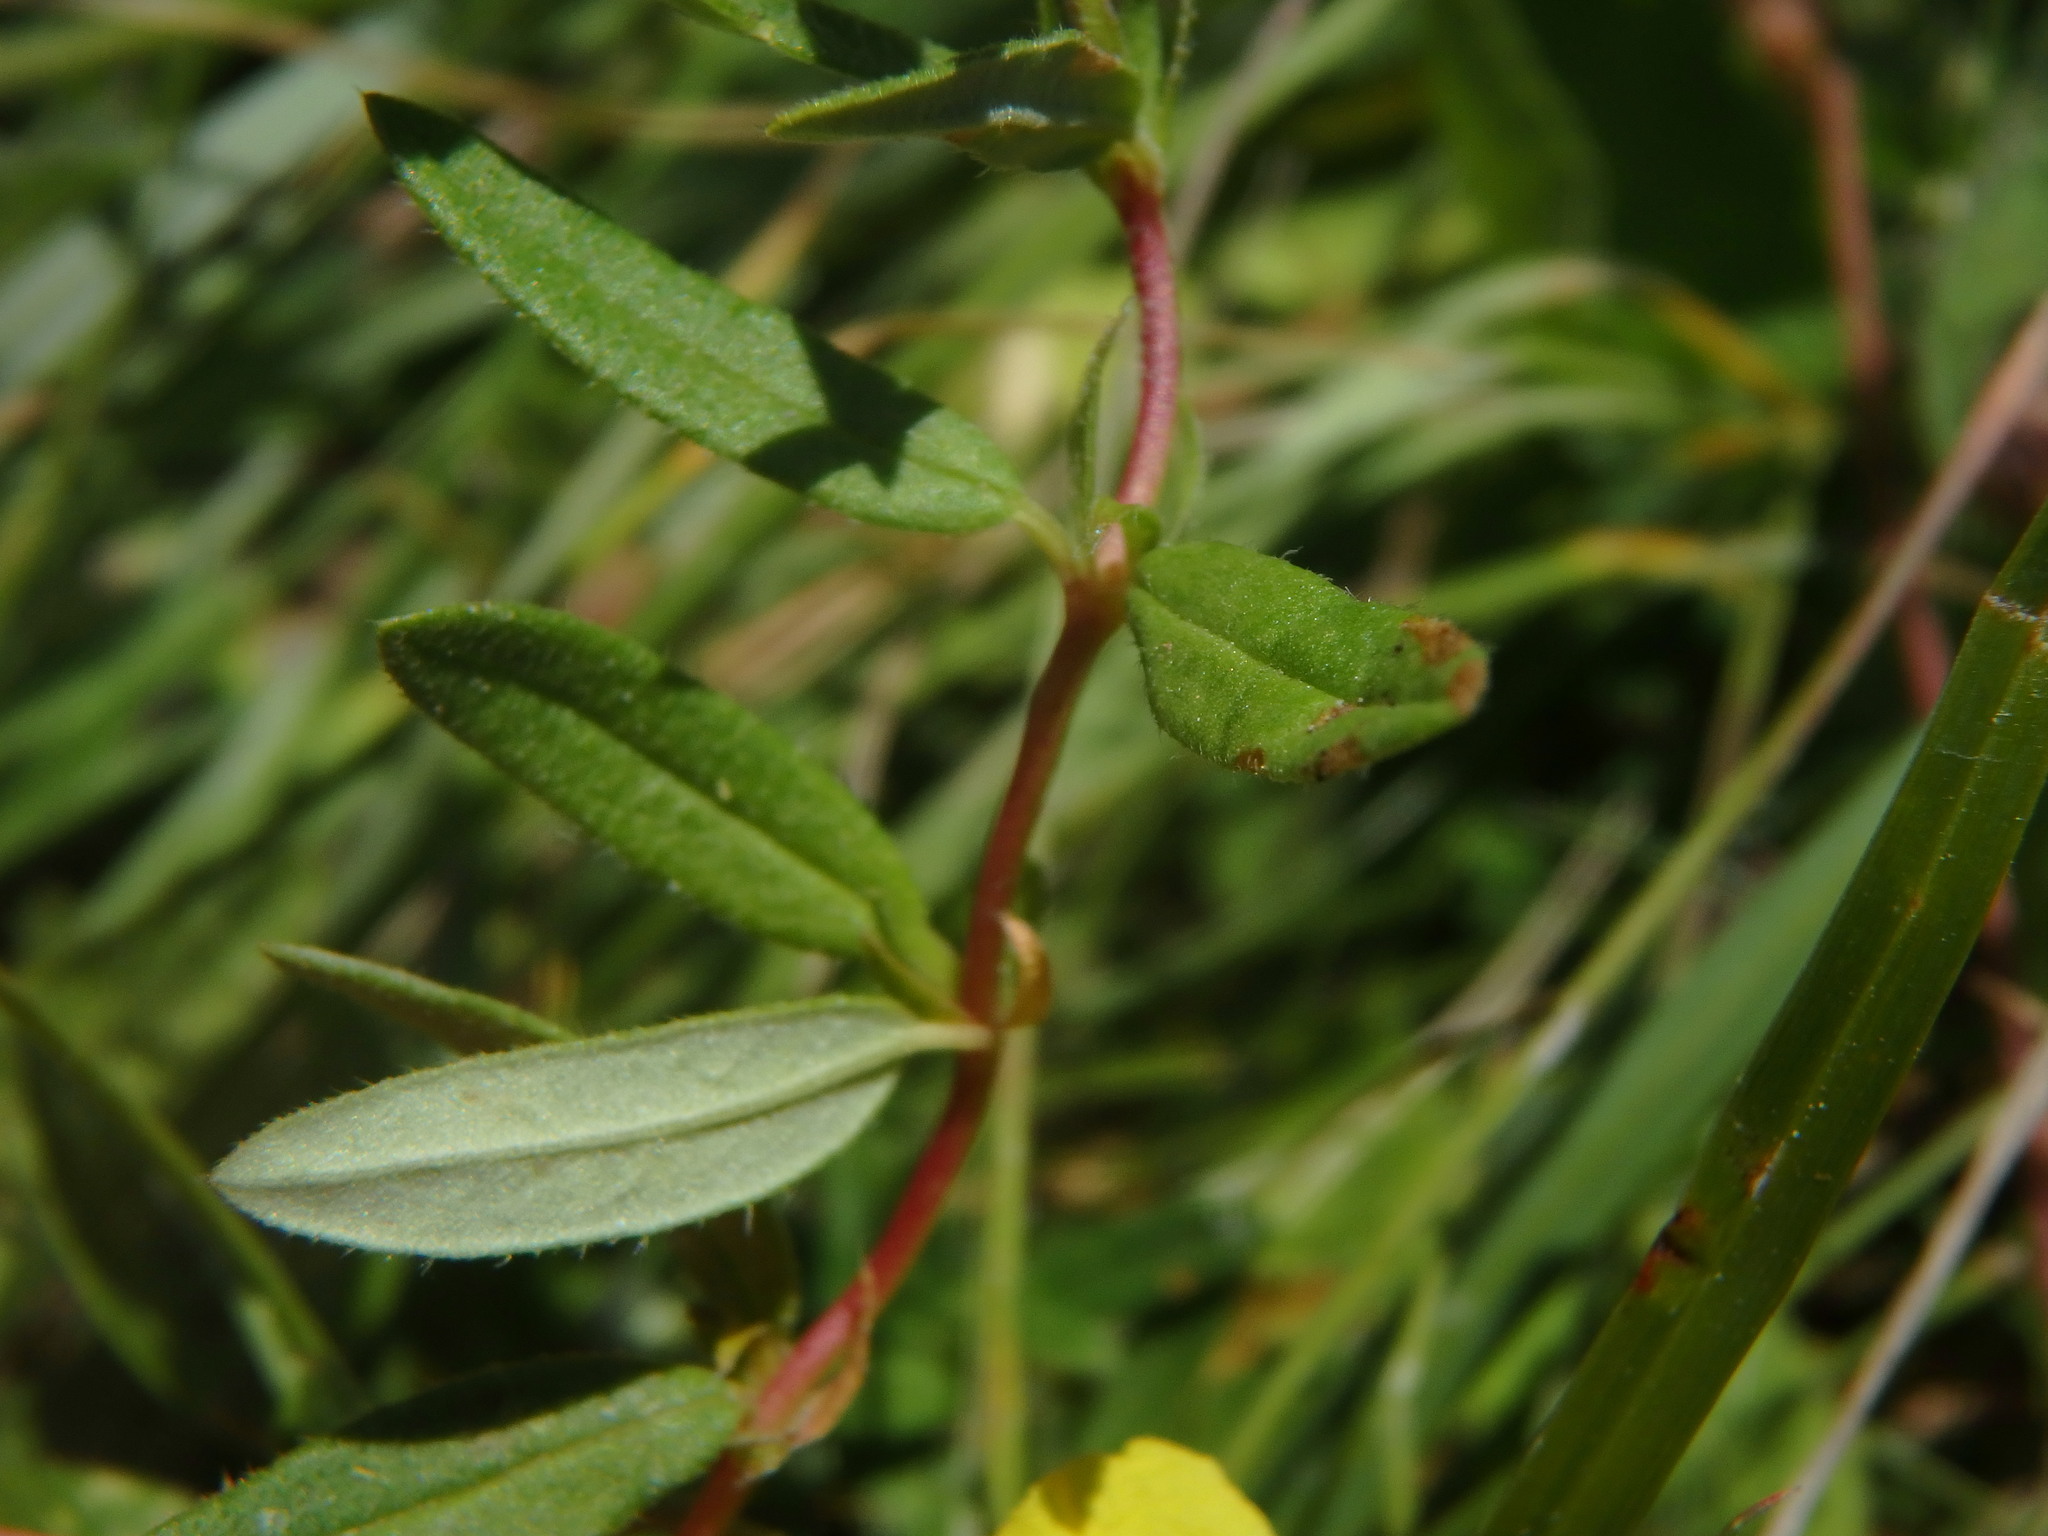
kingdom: Plantae
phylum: Tracheophyta
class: Magnoliopsida
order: Malvales
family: Cistaceae
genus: Helianthemum
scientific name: Helianthemum nummularium
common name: Common rock-rose
